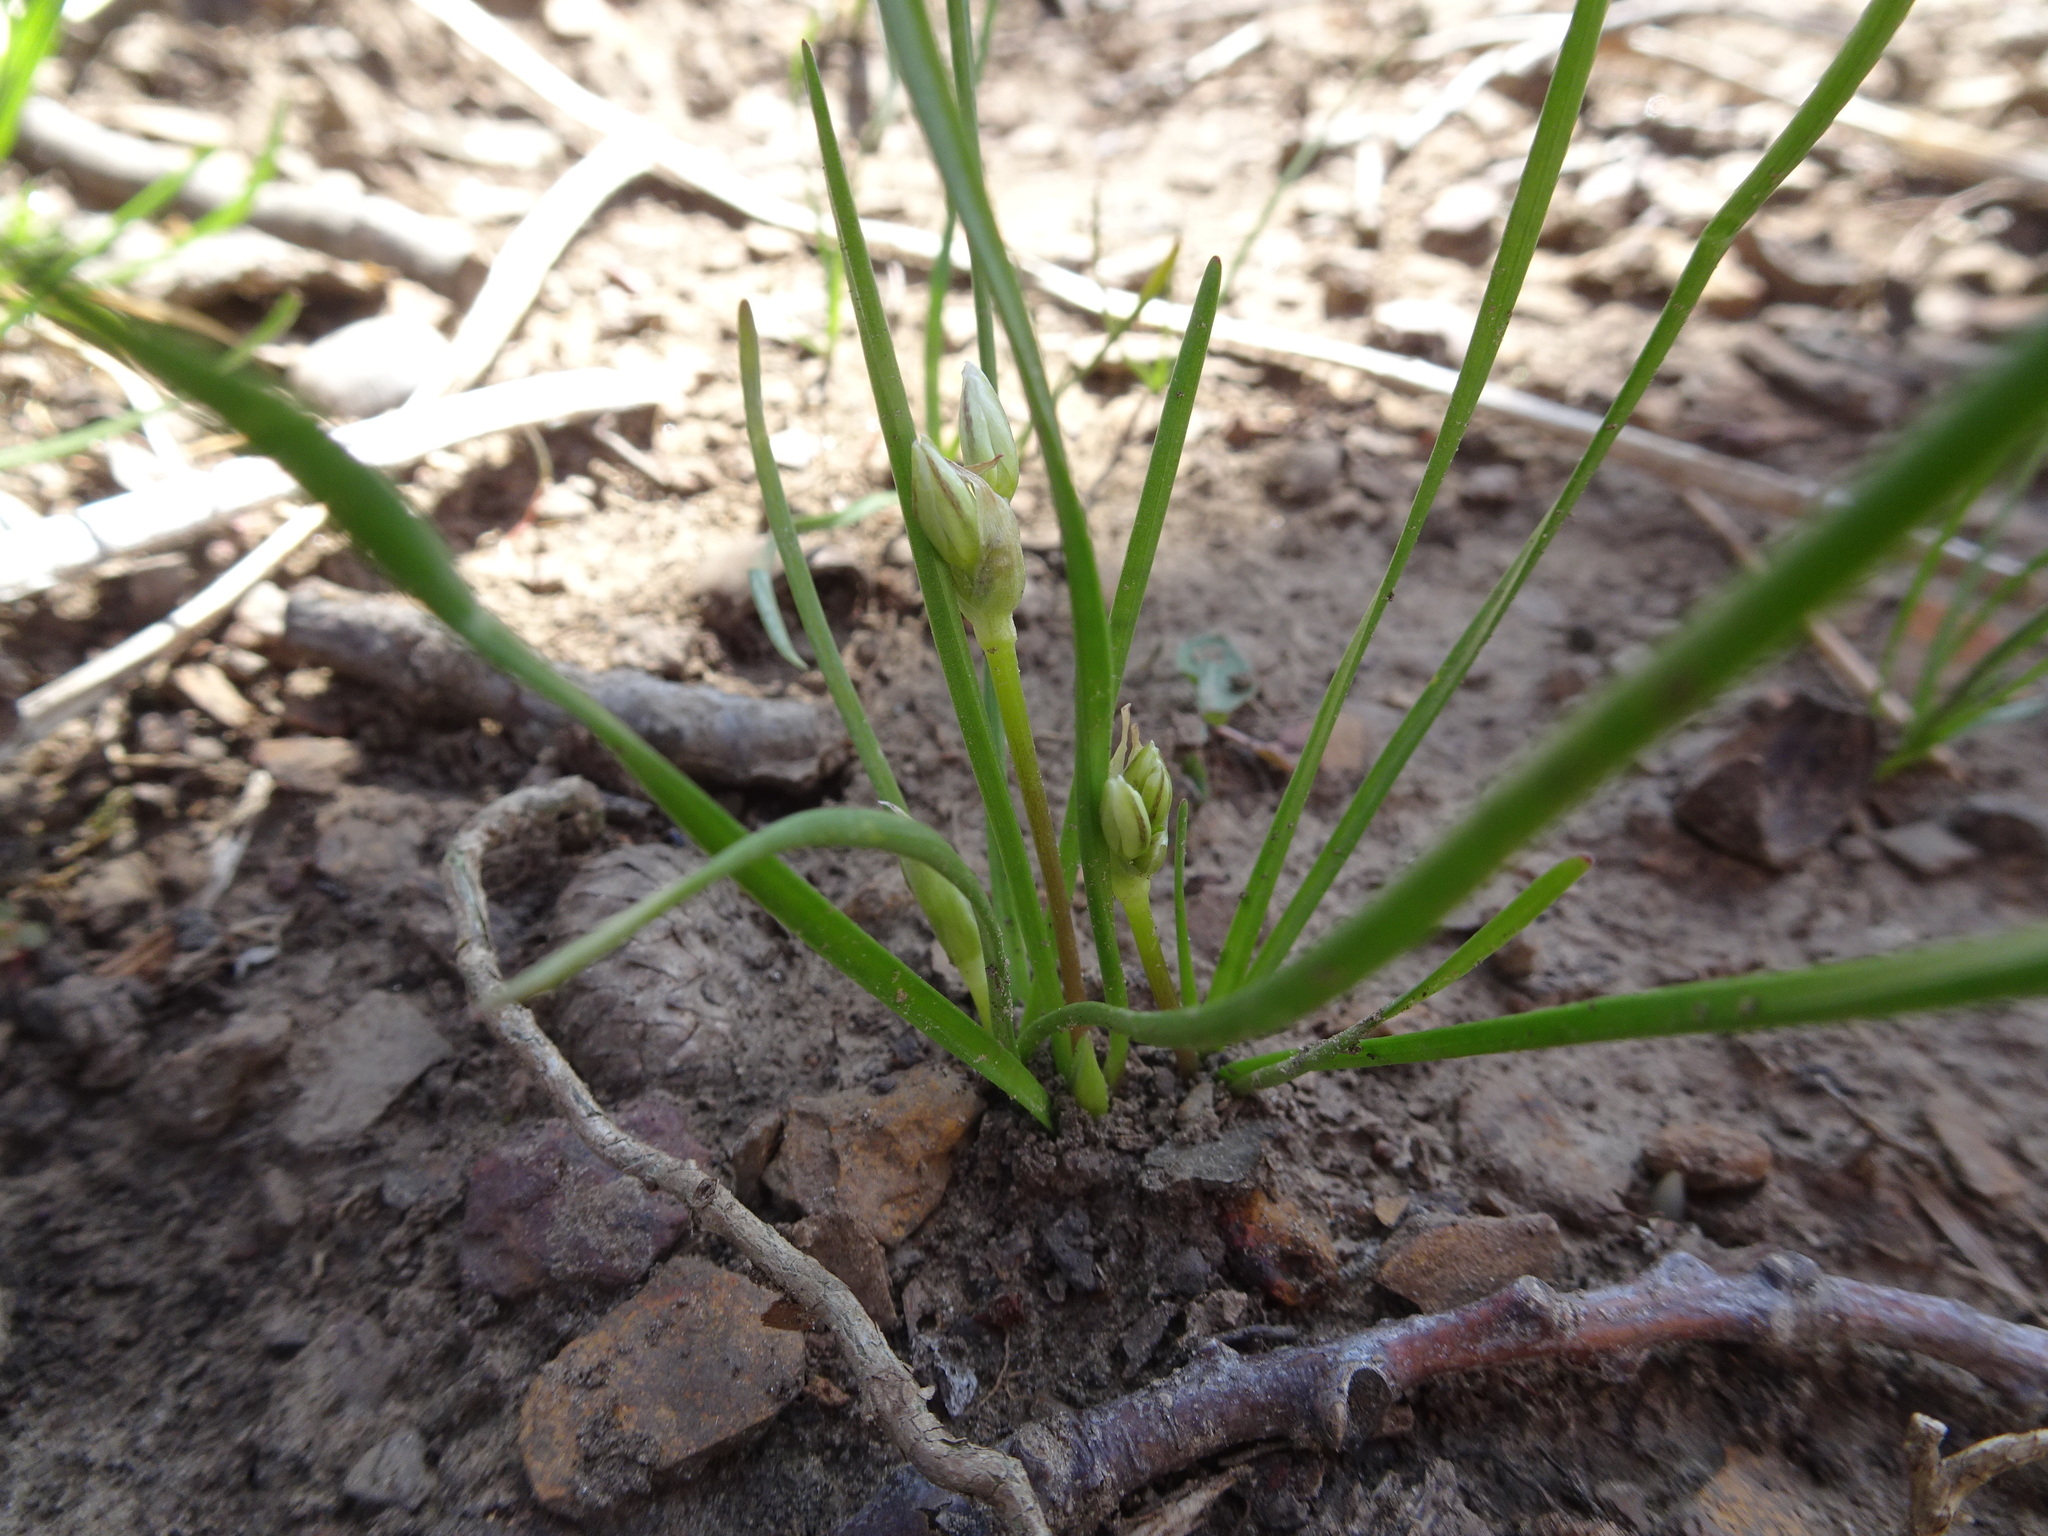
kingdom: Plantae
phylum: Tracheophyta
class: Liliopsida
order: Asparagales
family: Amaryllidaceae
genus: Nothoscordum
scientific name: Nothoscordum bivalve
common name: Crow-poison
